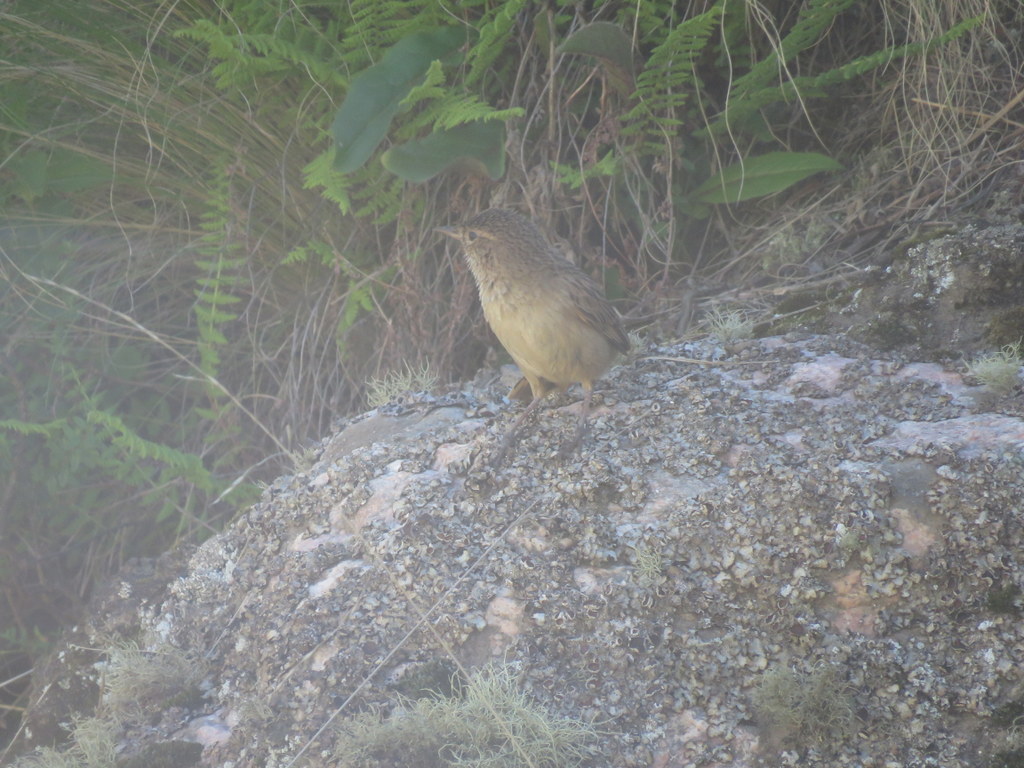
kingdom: Animalia
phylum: Chordata
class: Aves
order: Passeriformes
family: Furnariidae
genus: Asthenes
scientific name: Asthenes wyatti
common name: Streak-backed canastero
